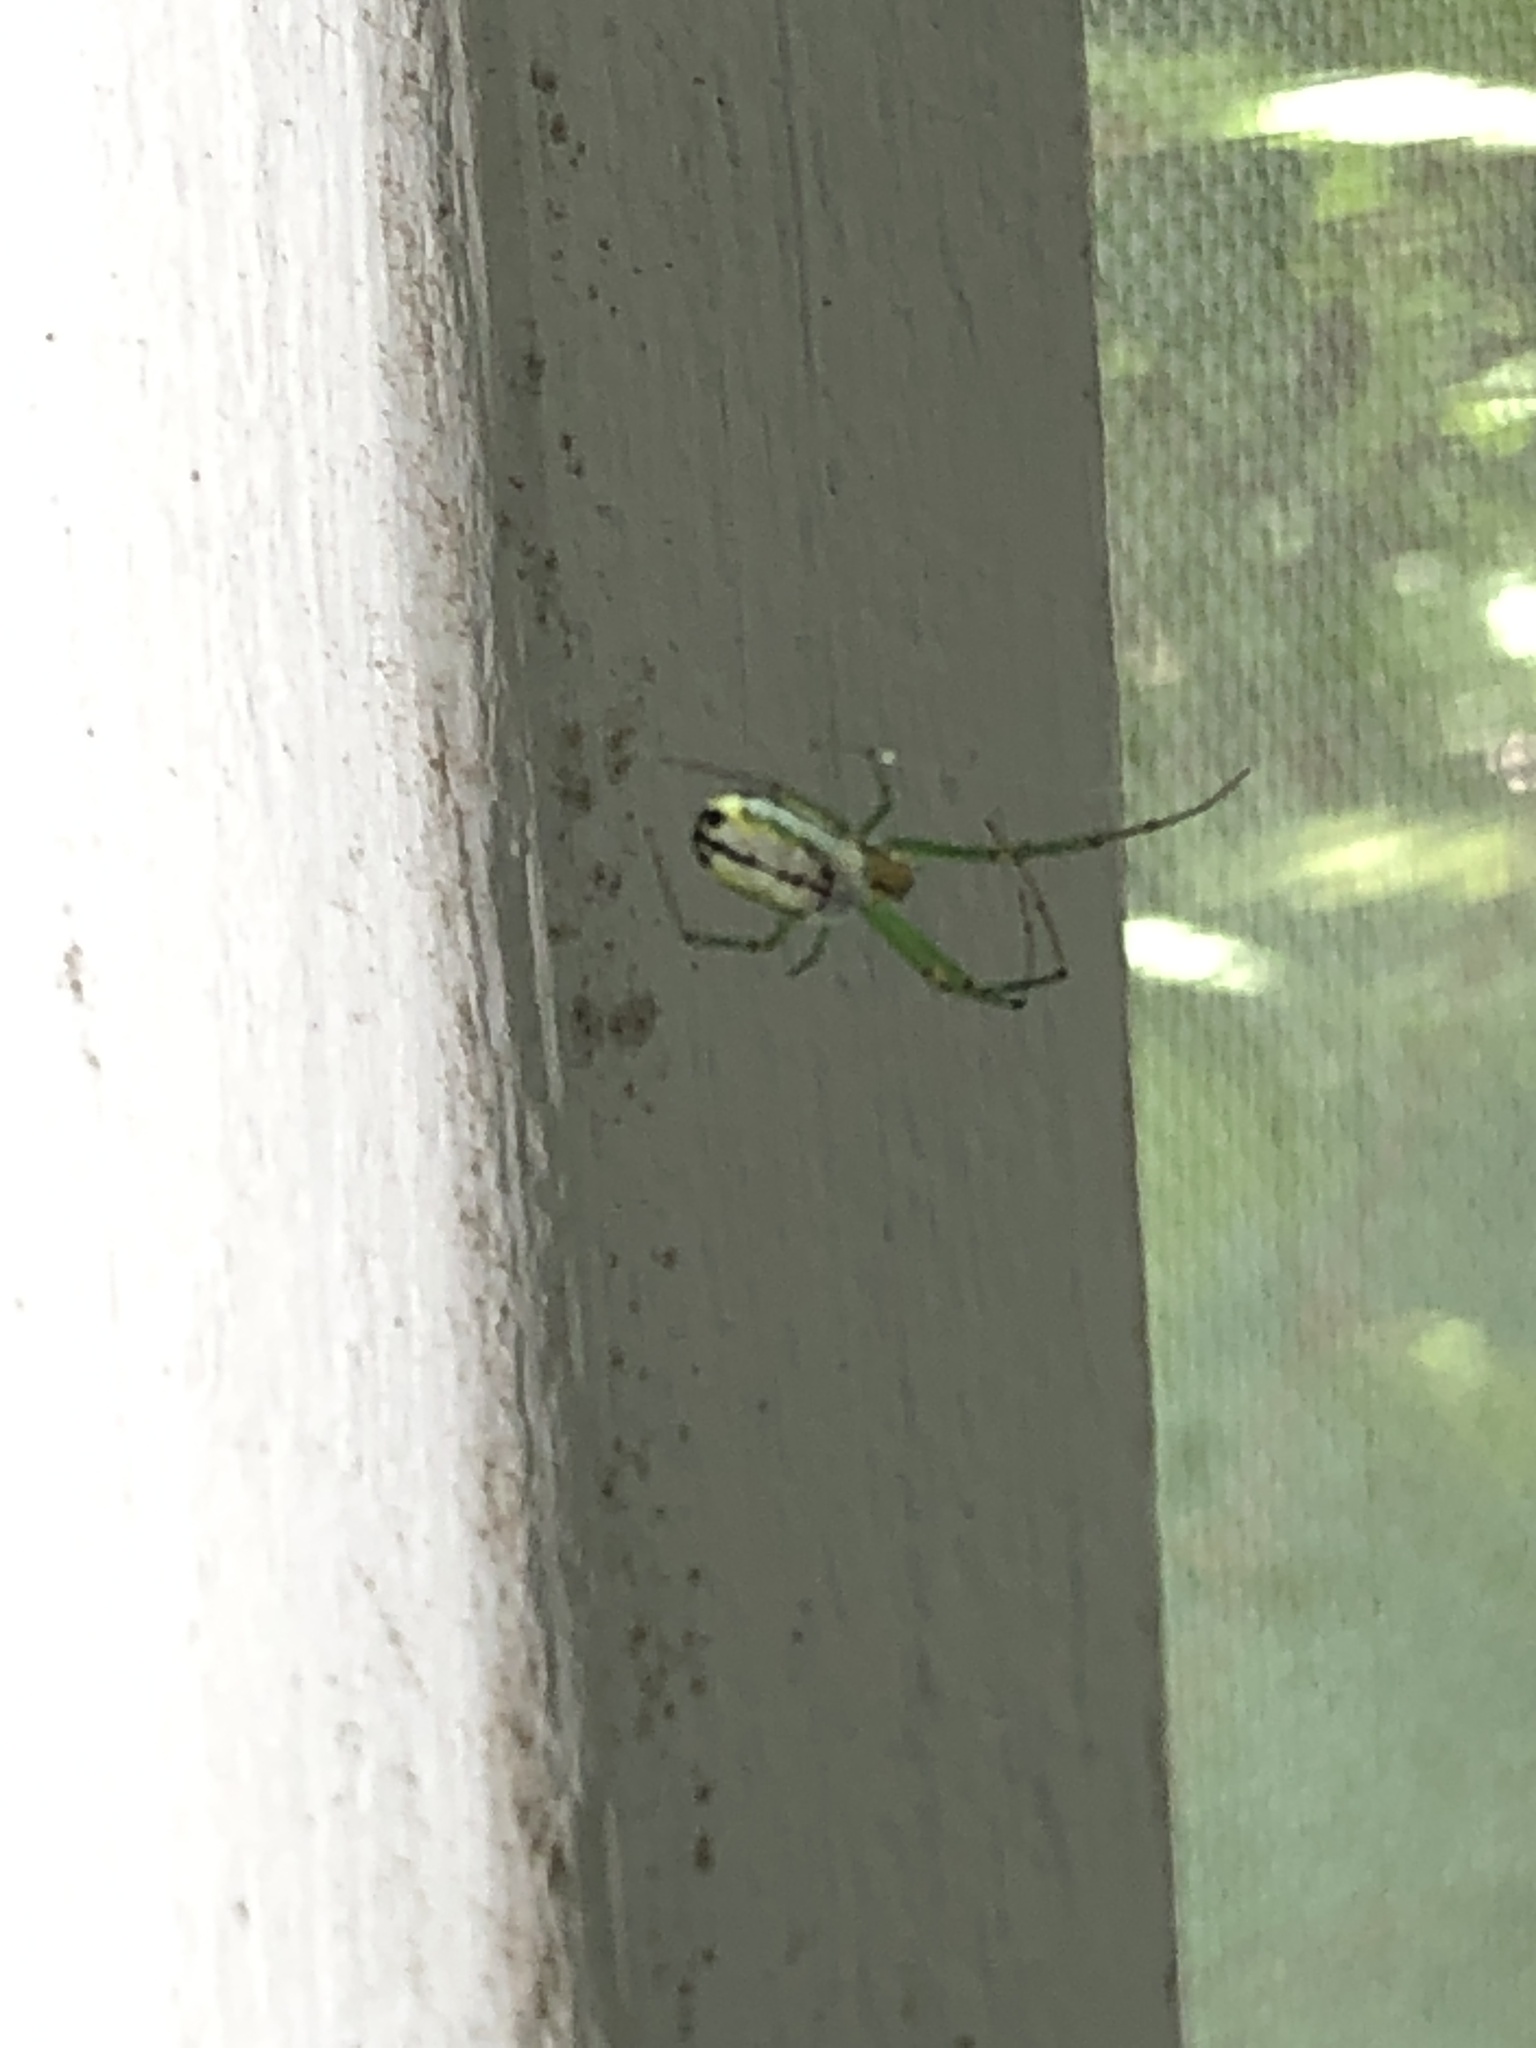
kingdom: Animalia
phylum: Arthropoda
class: Arachnida
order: Araneae
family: Tetragnathidae
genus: Leucauge
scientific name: Leucauge venusta
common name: Longjawed orb weavers
